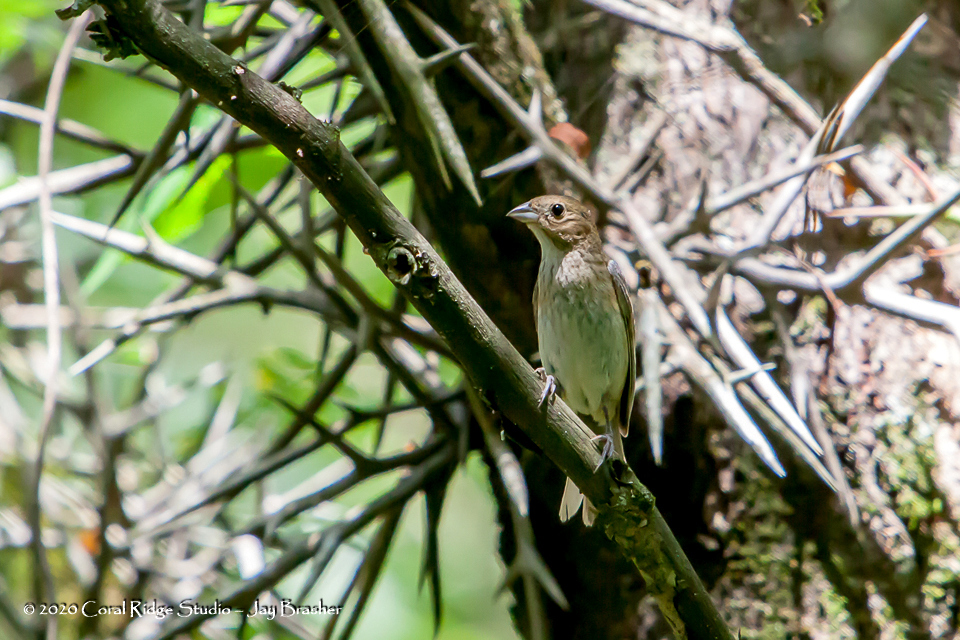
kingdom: Animalia
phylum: Chordata
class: Aves
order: Passeriformes
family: Cardinalidae
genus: Passerina
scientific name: Passerina cyanea
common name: Indigo bunting
